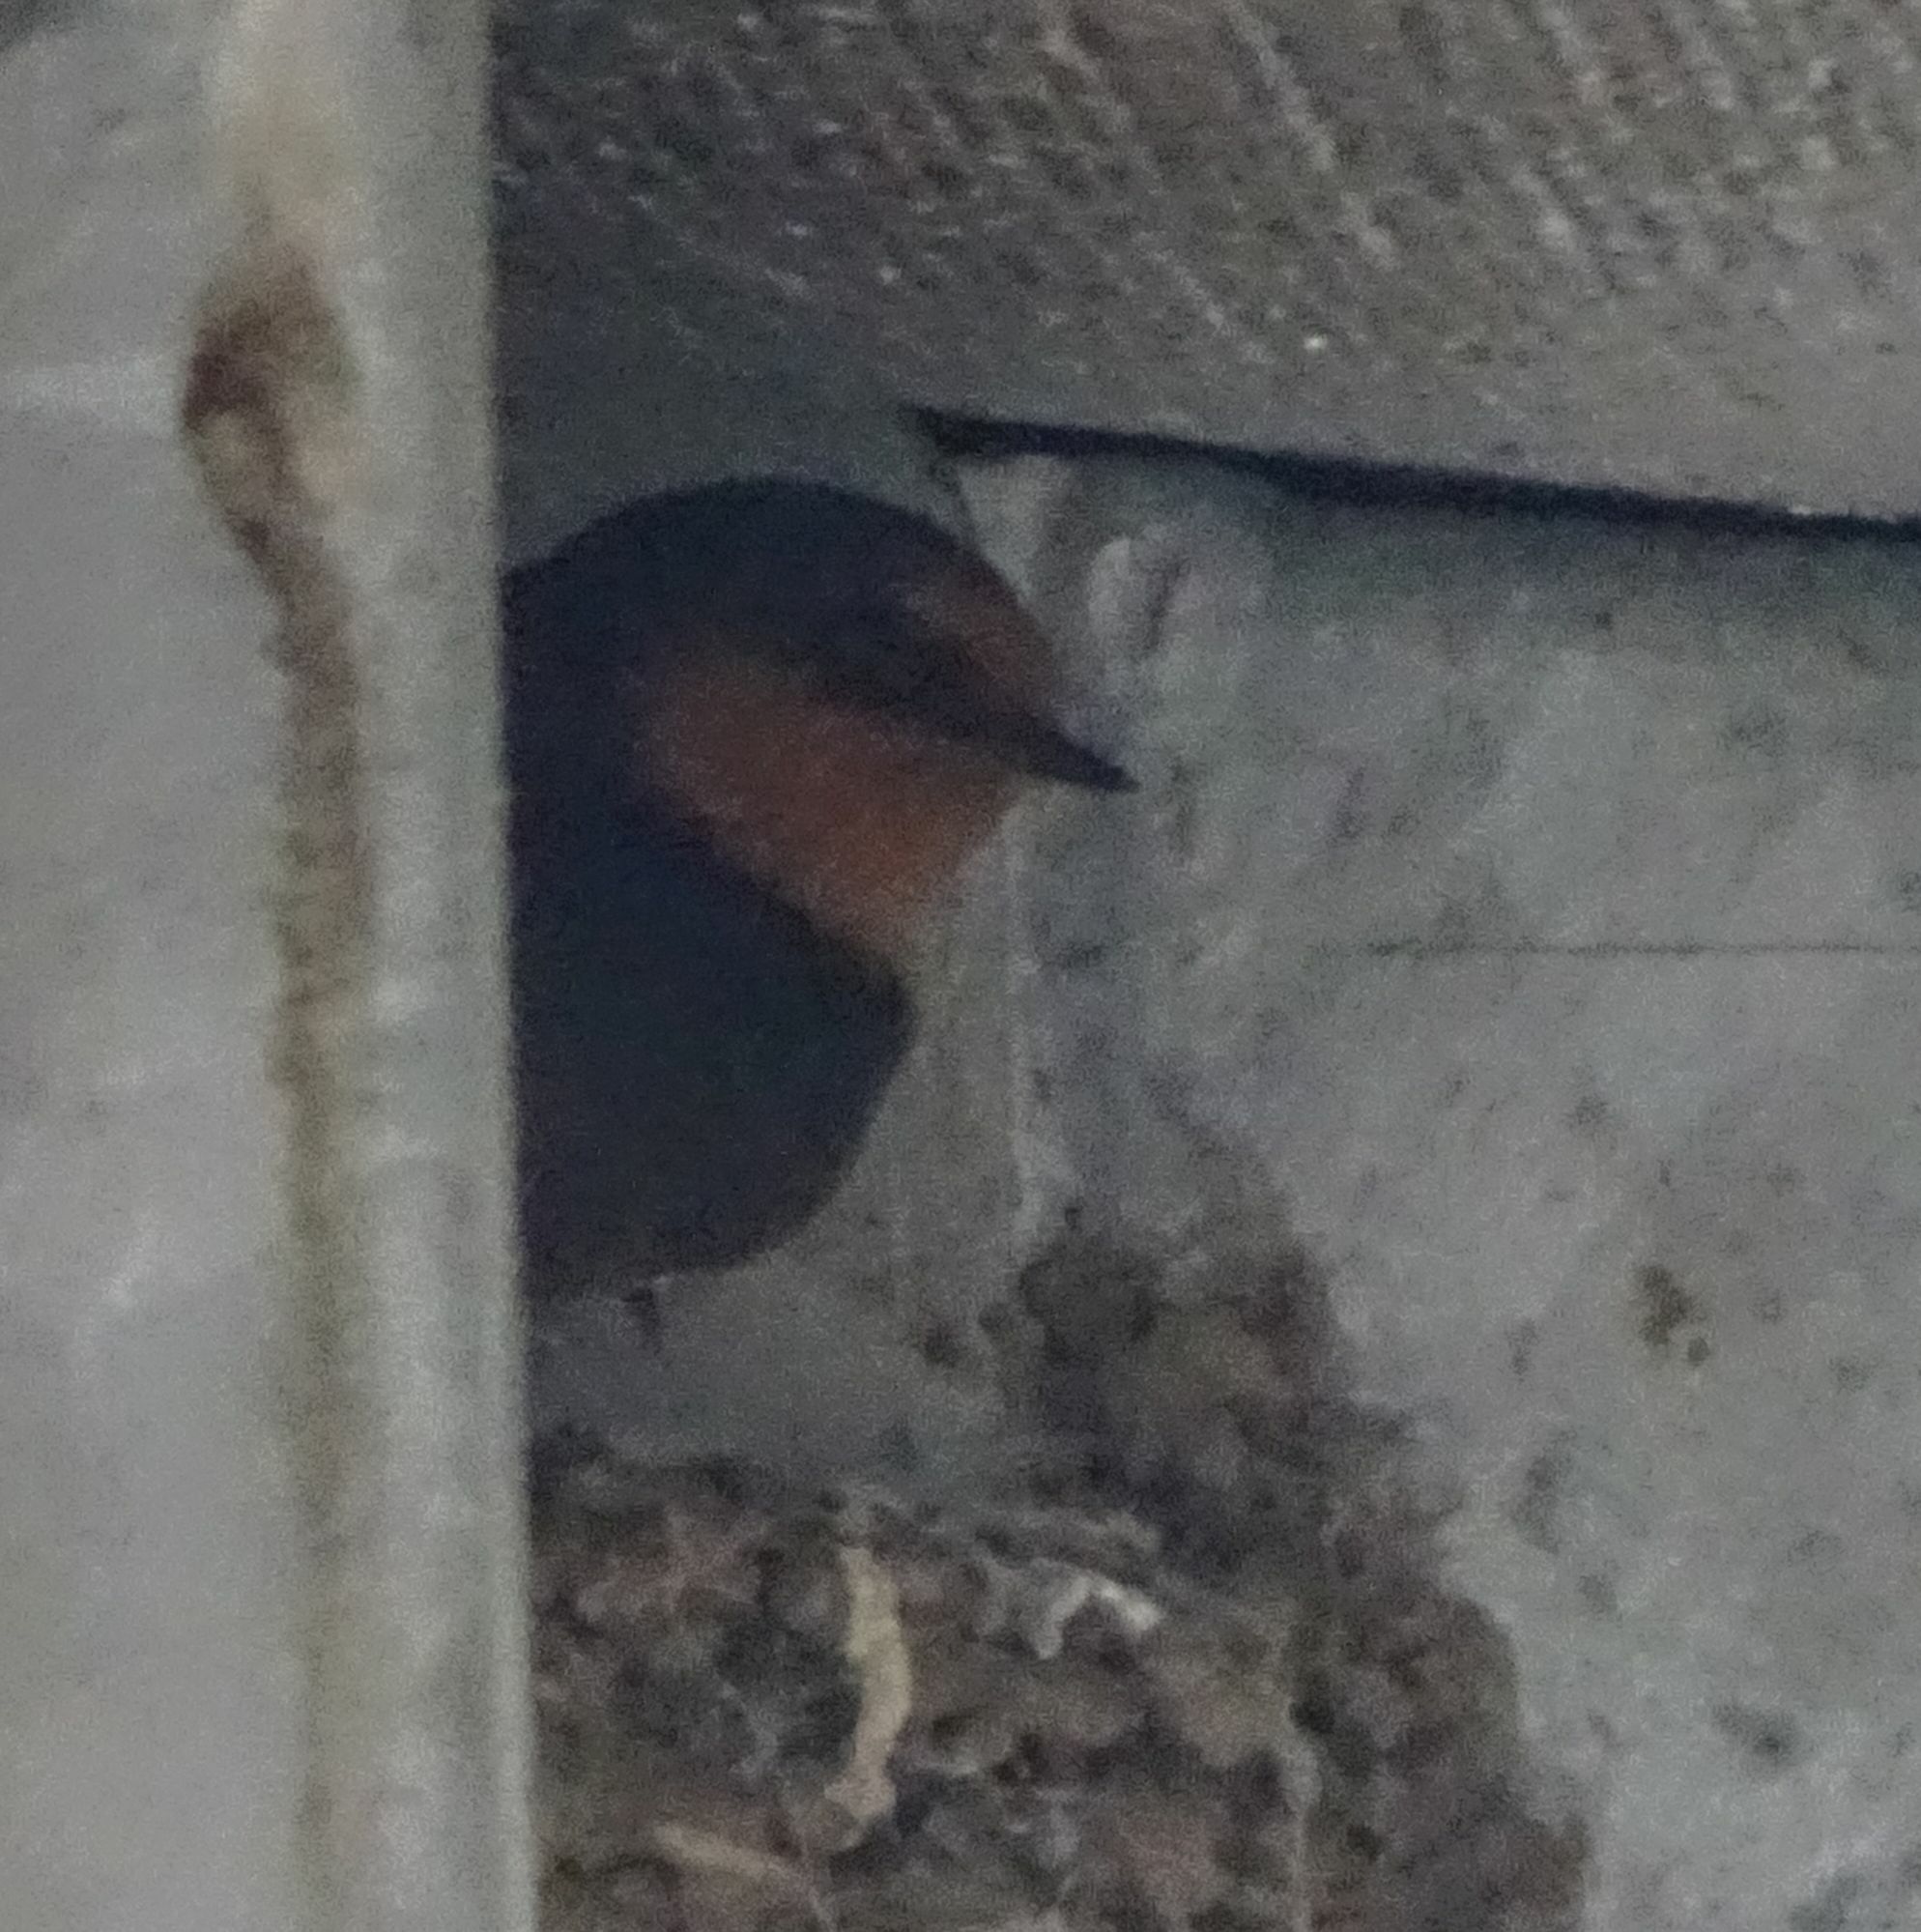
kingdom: Animalia
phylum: Chordata
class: Aves
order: Passeriformes
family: Hirundinidae
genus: Hirundo
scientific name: Hirundo neoxena
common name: Welcome swallow
